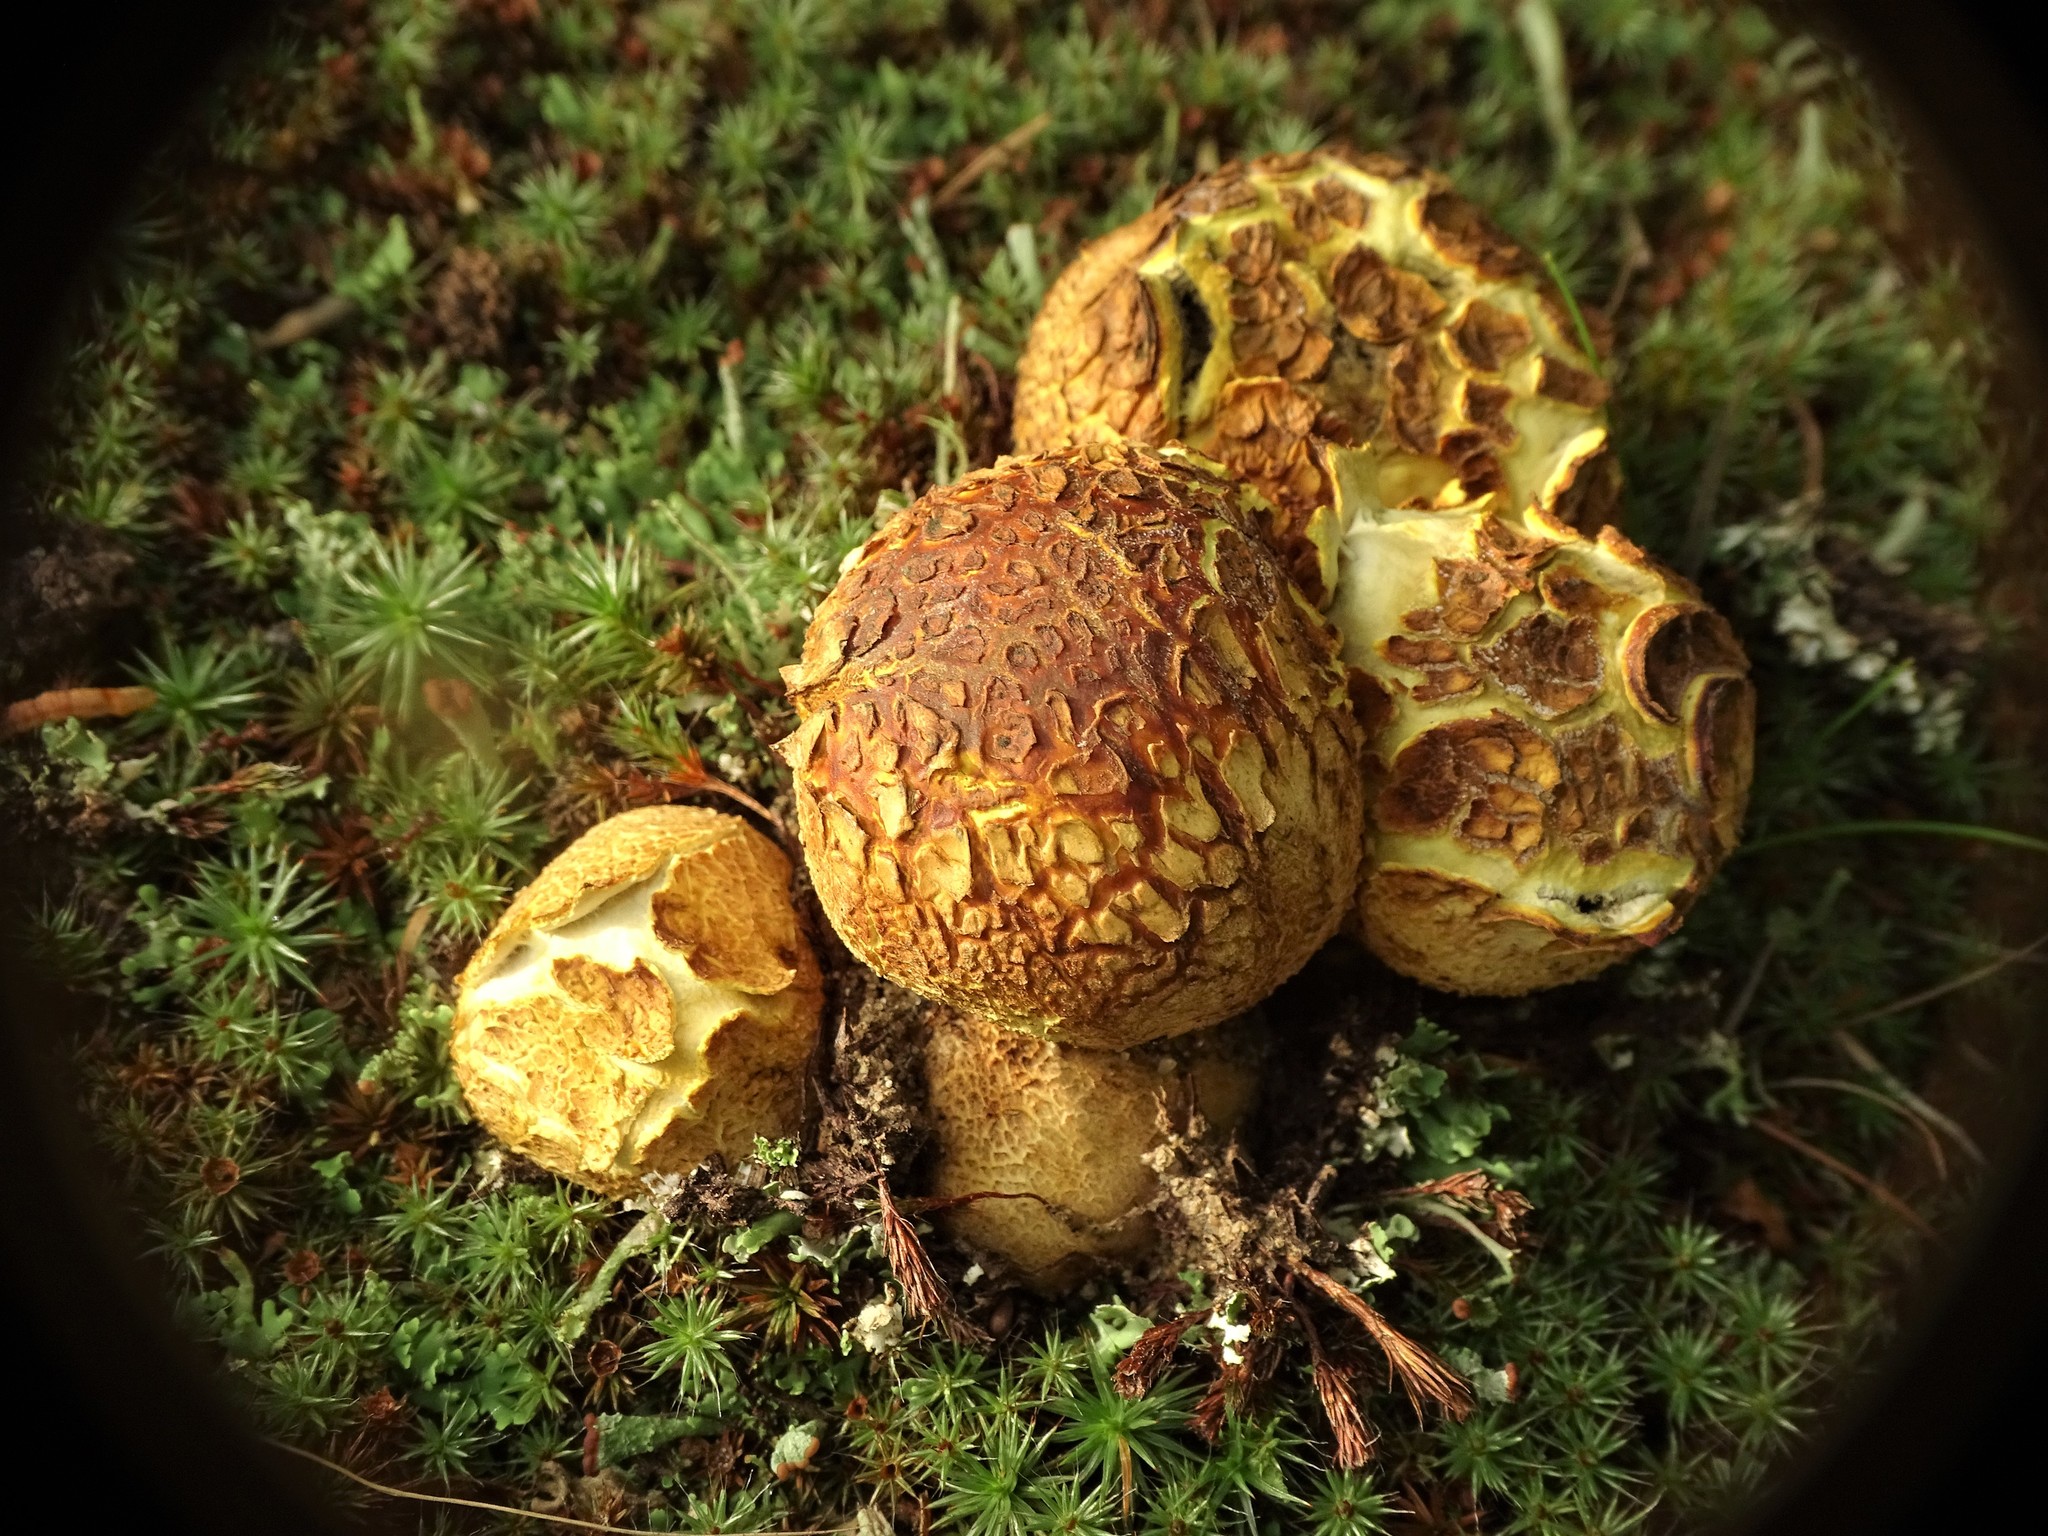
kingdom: Fungi
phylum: Basidiomycota
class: Agaricomycetes
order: Boletales
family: Sclerodermataceae
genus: Scleroderma
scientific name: Scleroderma citrinum
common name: Common earthball
